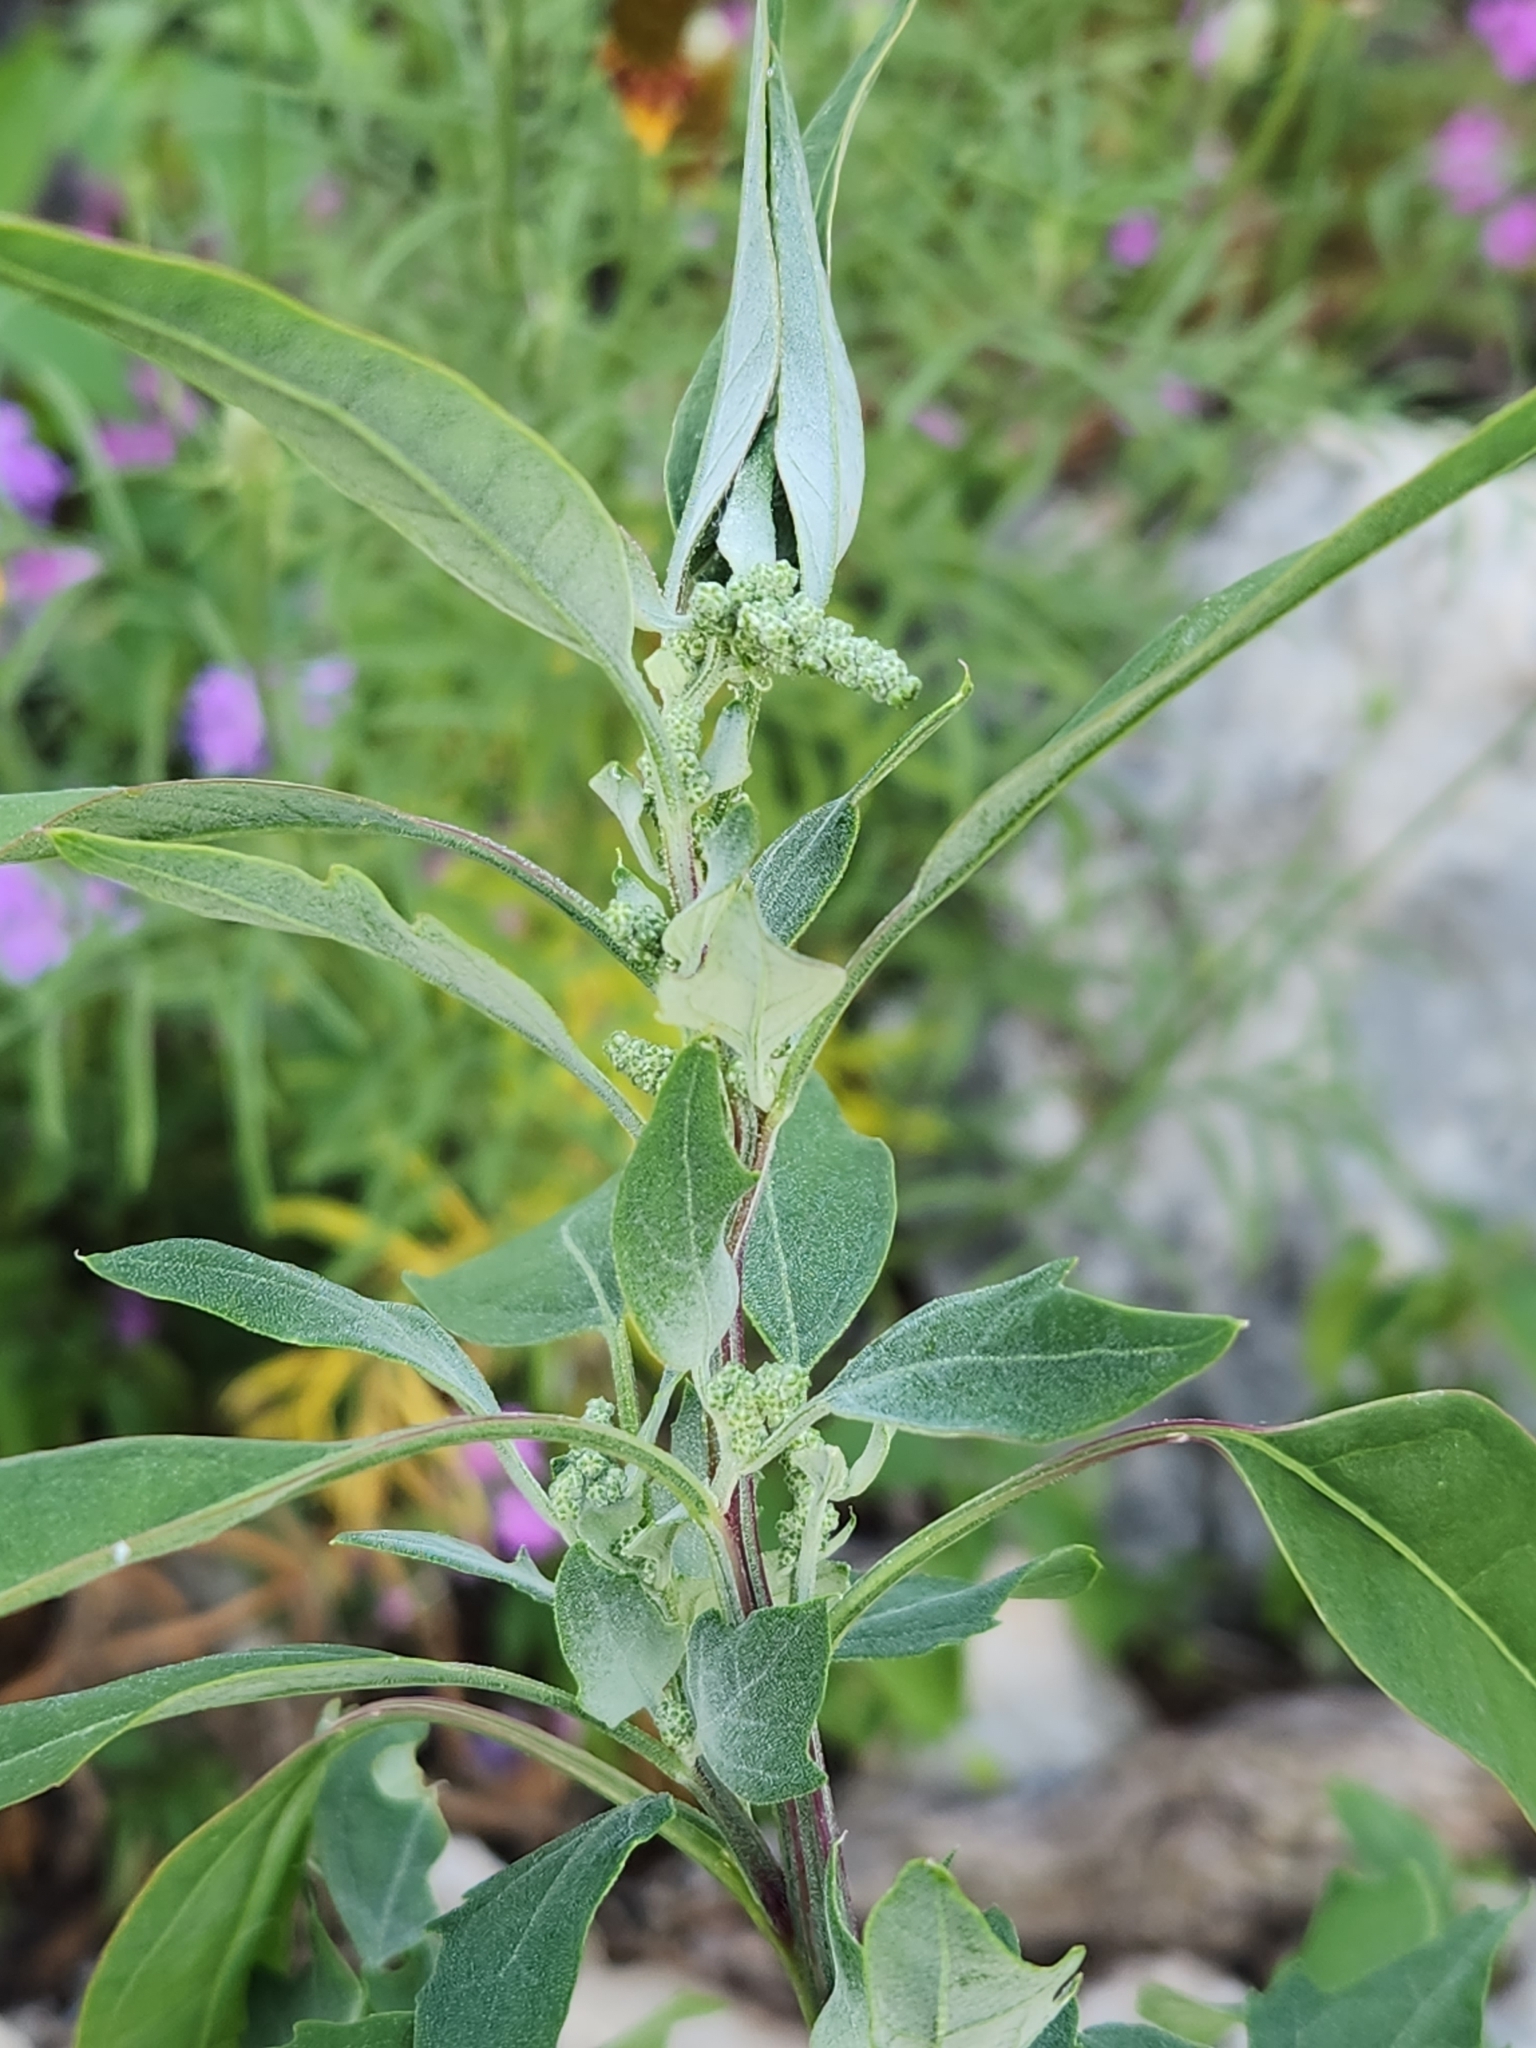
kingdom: Plantae
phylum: Tracheophyta
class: Magnoliopsida
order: Caryophyllales
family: Amaranthaceae
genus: Chenopodium
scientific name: Chenopodium album
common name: Fat-hen
